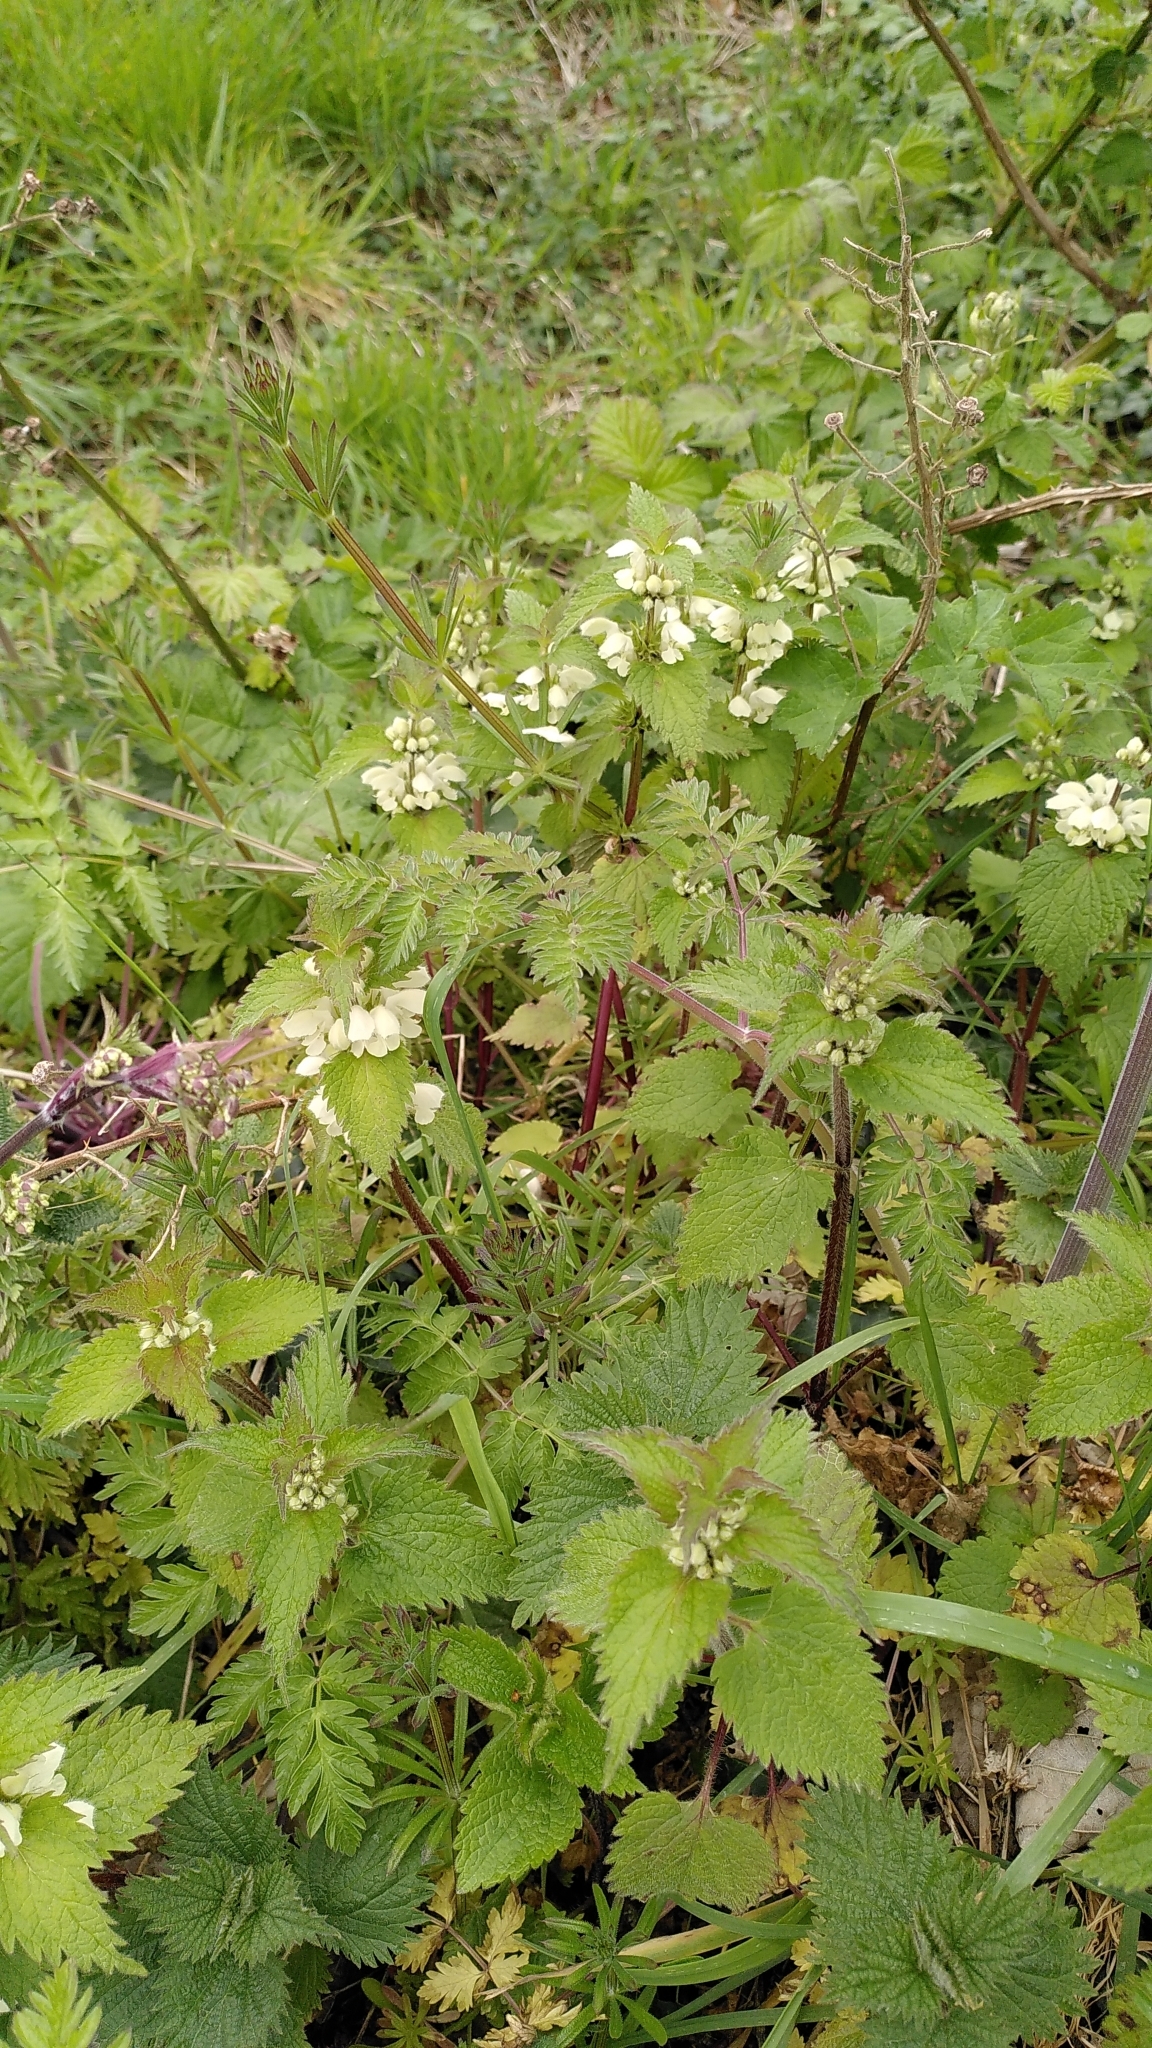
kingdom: Plantae
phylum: Tracheophyta
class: Magnoliopsida
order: Lamiales
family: Lamiaceae
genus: Lamium
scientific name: Lamium album
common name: White dead-nettle
